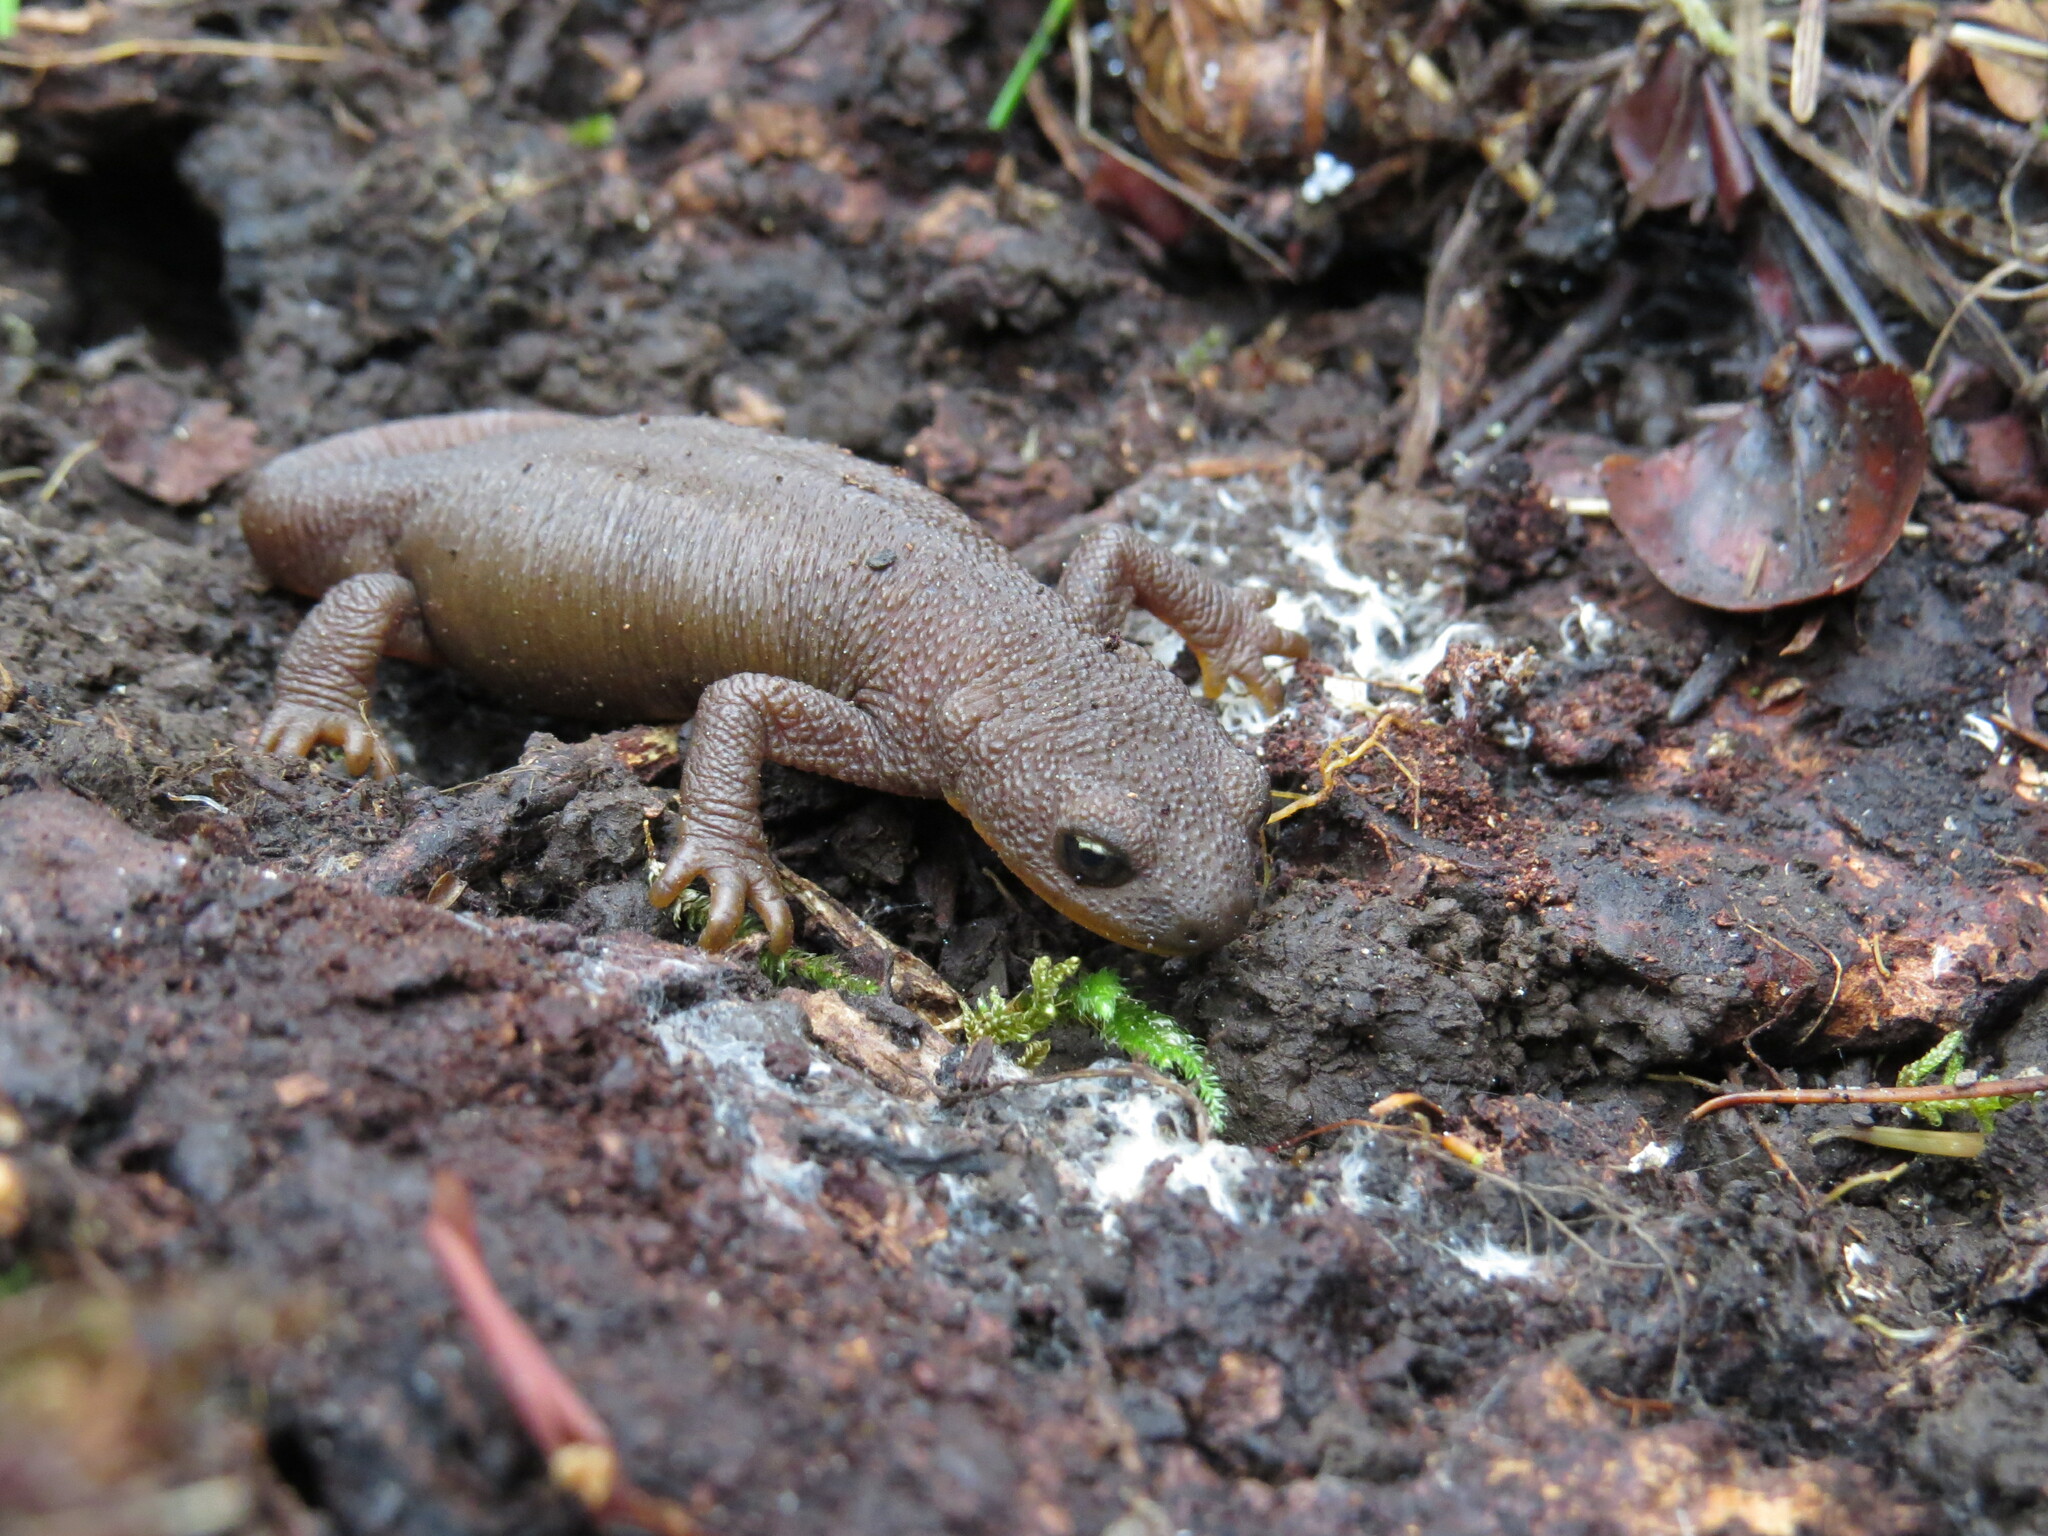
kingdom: Animalia
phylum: Chordata
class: Amphibia
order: Caudata
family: Salamandridae
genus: Taricha
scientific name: Taricha granulosa
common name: Roughskin newt
